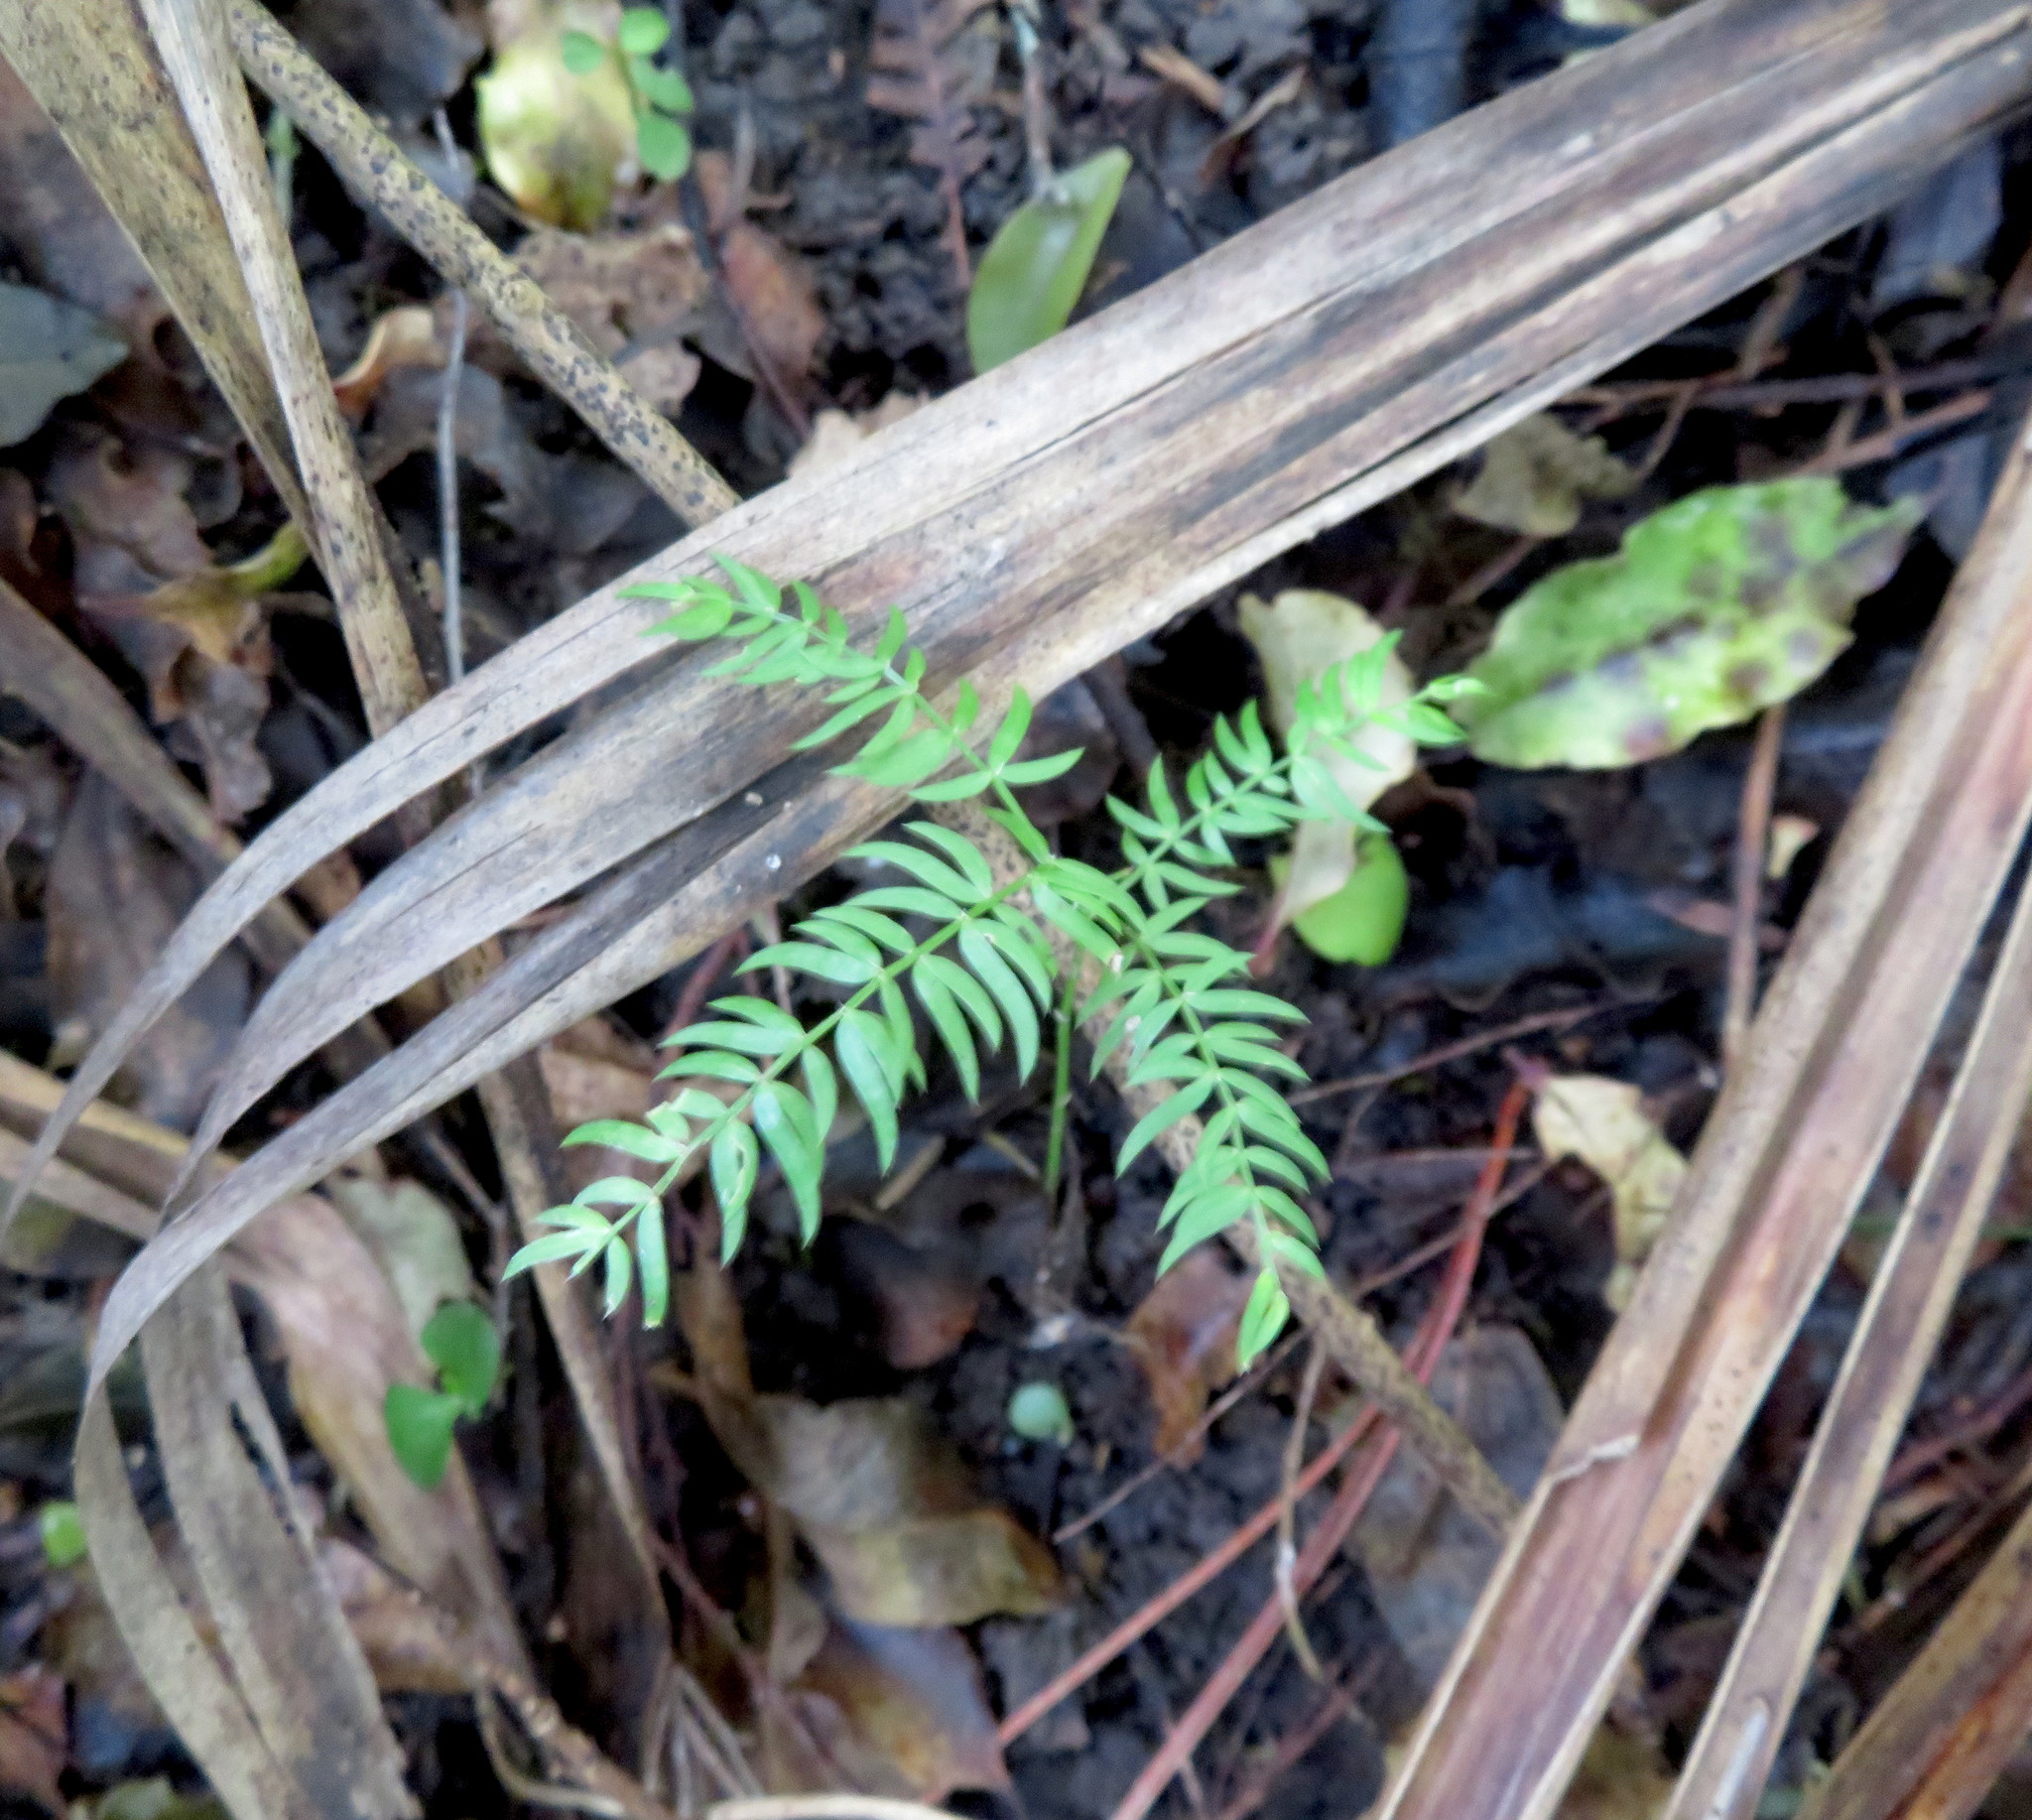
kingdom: Plantae
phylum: Tracheophyta
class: Liliopsida
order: Asparagales
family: Asparagaceae
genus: Asparagus
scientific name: Asparagus scandens
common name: Asparagus-fern
